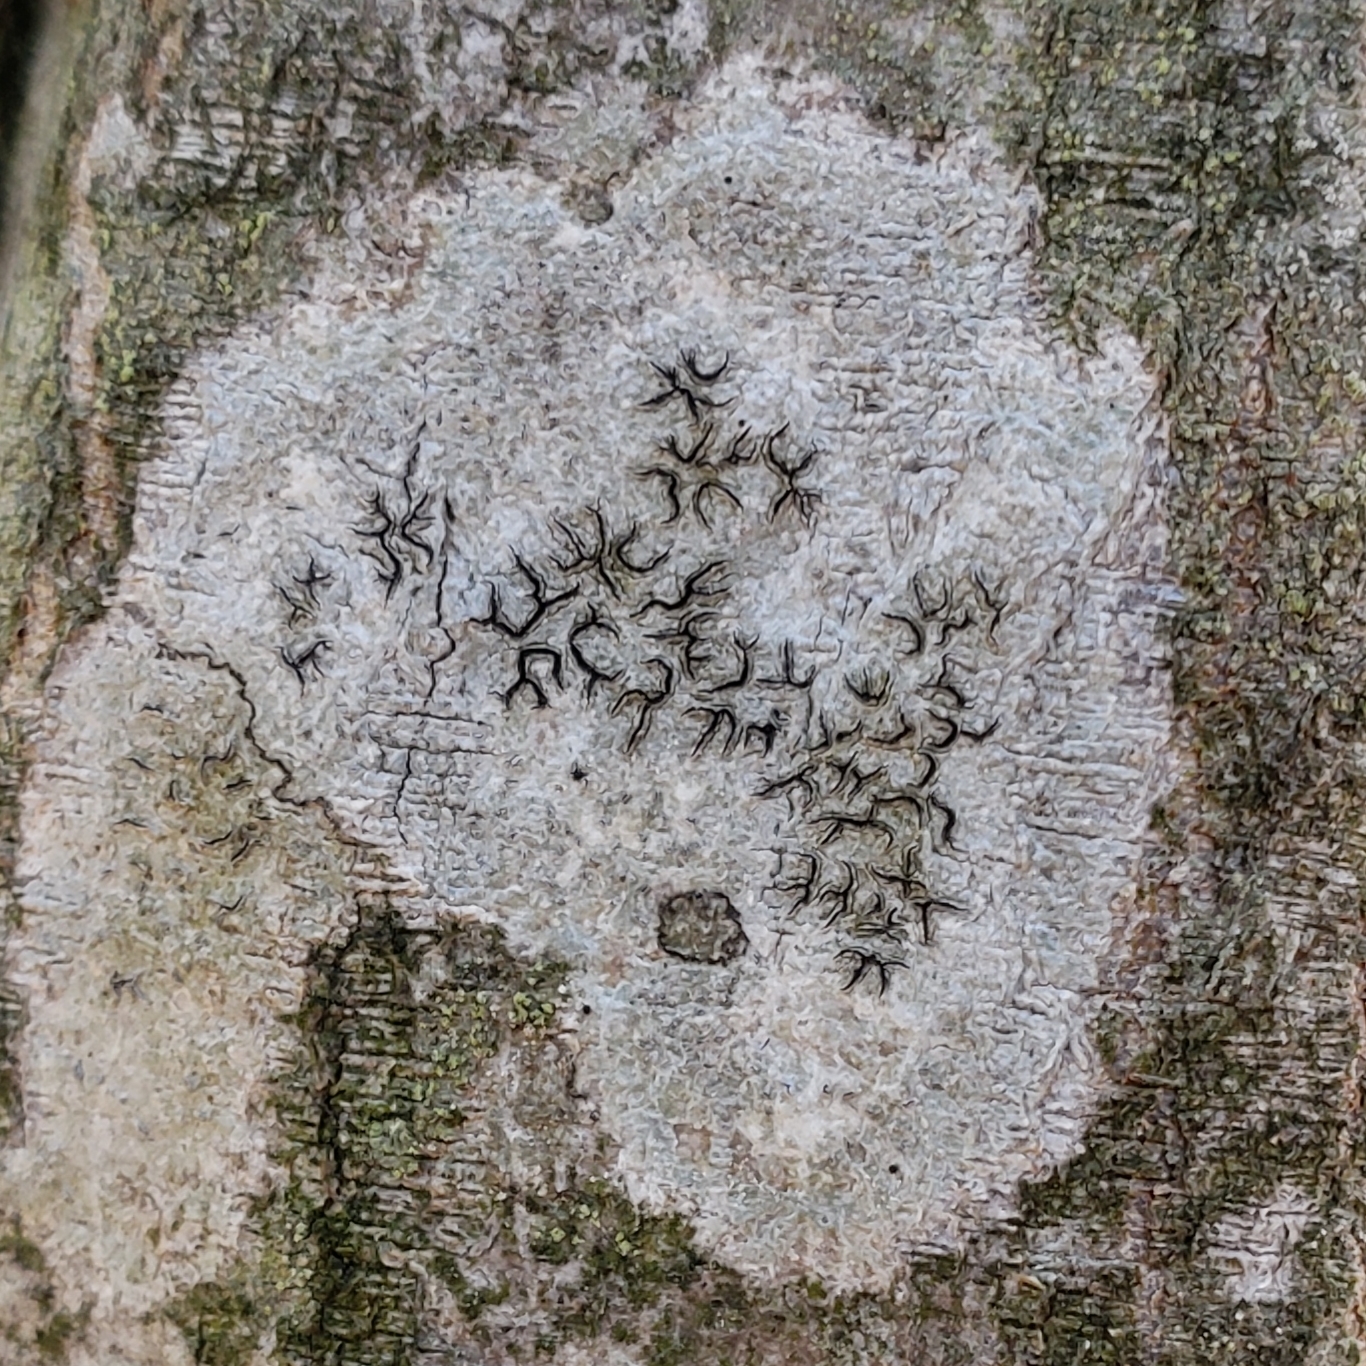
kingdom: Fungi
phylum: Ascomycota
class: Lecanoromycetes
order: Ostropales
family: Graphidaceae
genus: Graphis
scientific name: Graphis scripta
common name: Script lichen
